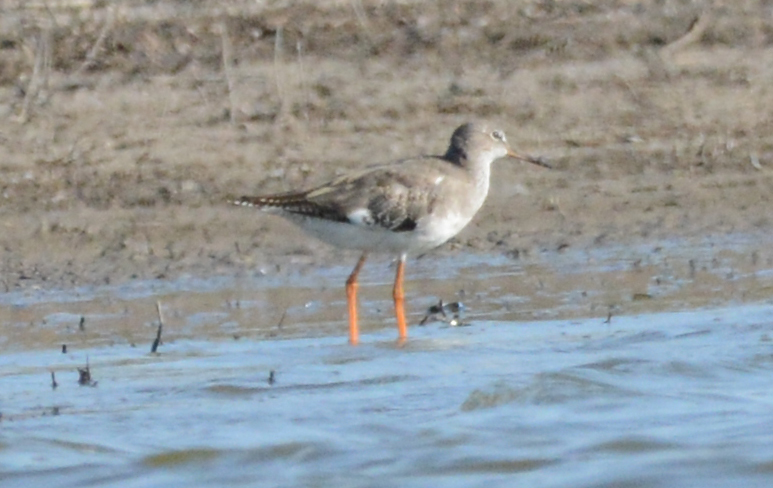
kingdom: Animalia
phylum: Chordata
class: Aves
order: Charadriiformes
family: Scolopacidae
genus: Tringa
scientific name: Tringa totanus
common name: Common redshank
